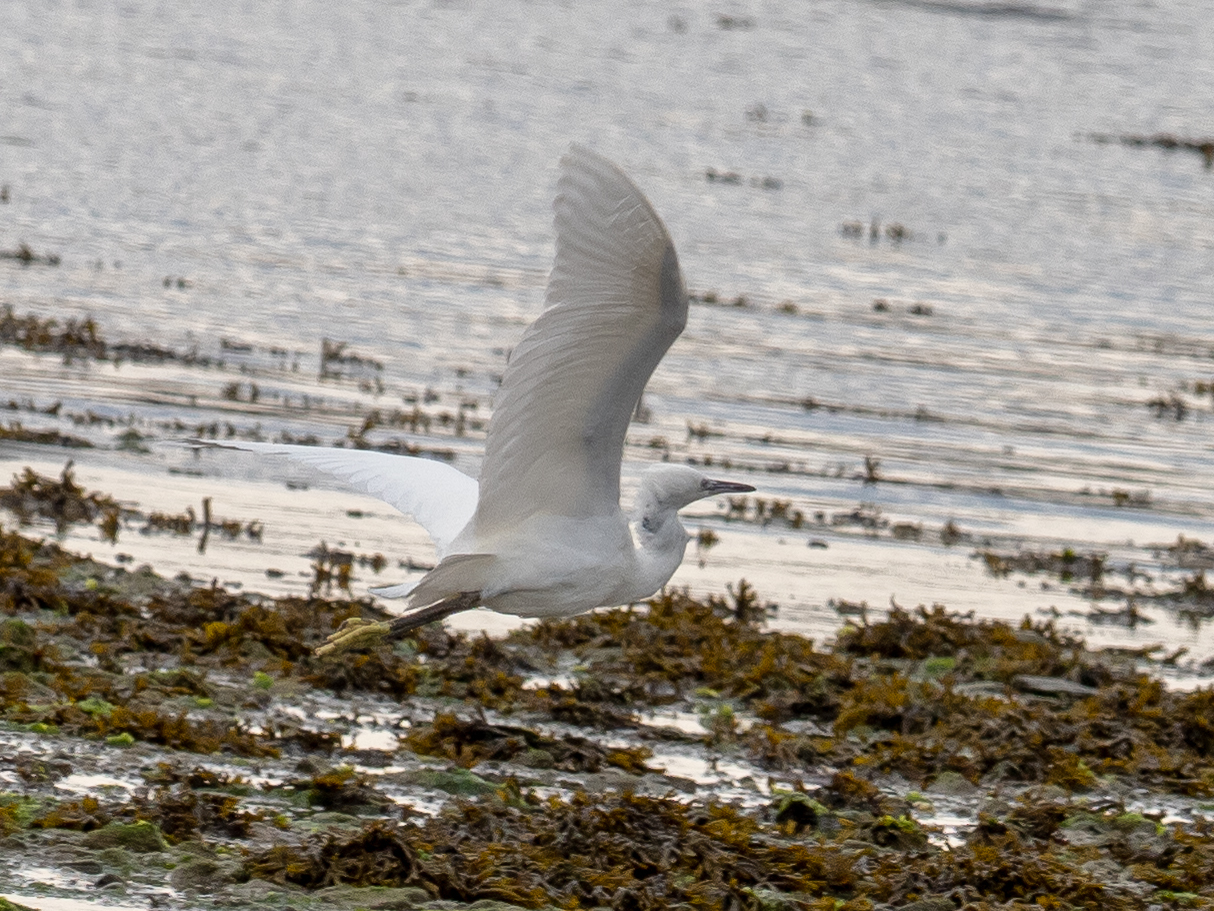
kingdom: Animalia
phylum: Chordata
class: Aves
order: Pelecaniformes
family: Ardeidae
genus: Egretta
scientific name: Egretta garzetta
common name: Little egret
